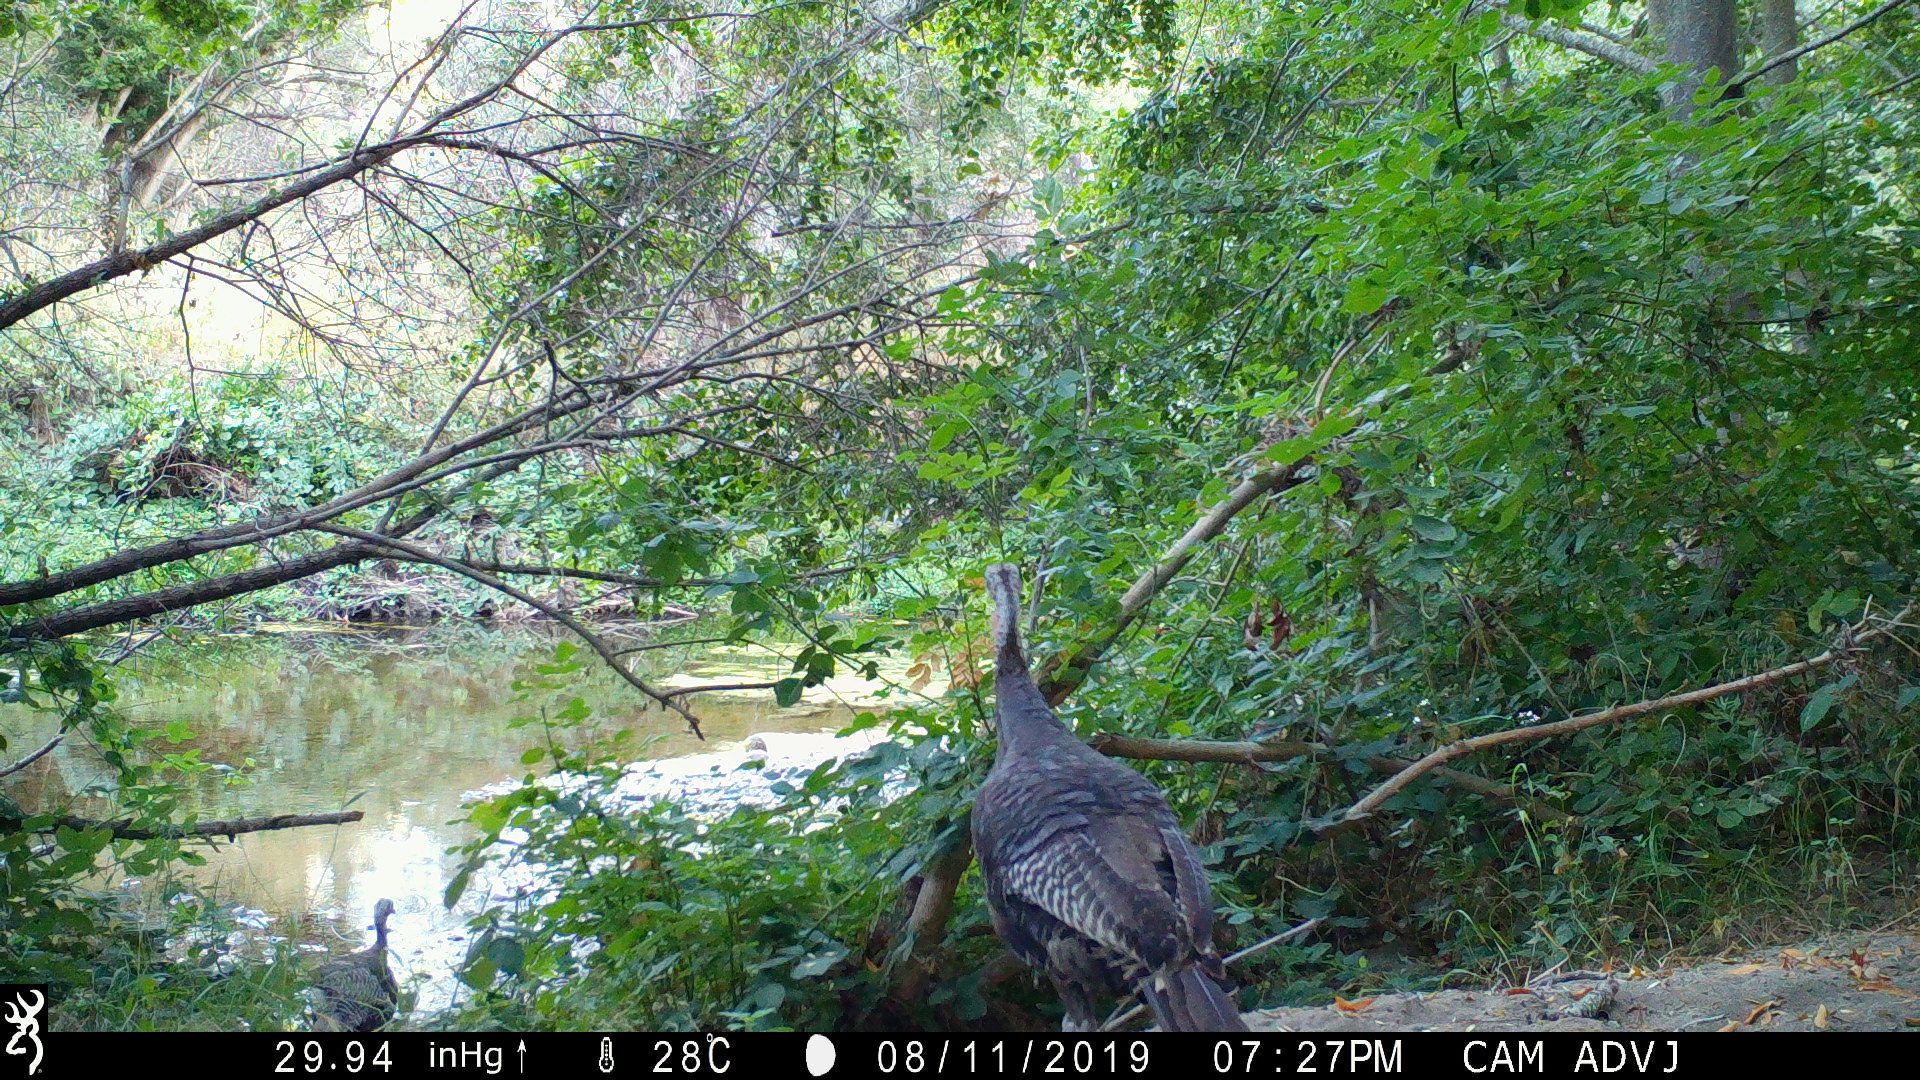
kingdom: Animalia
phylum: Chordata
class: Aves
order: Galliformes
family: Phasianidae
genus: Meleagris
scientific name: Meleagris gallopavo
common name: Wild turkey
